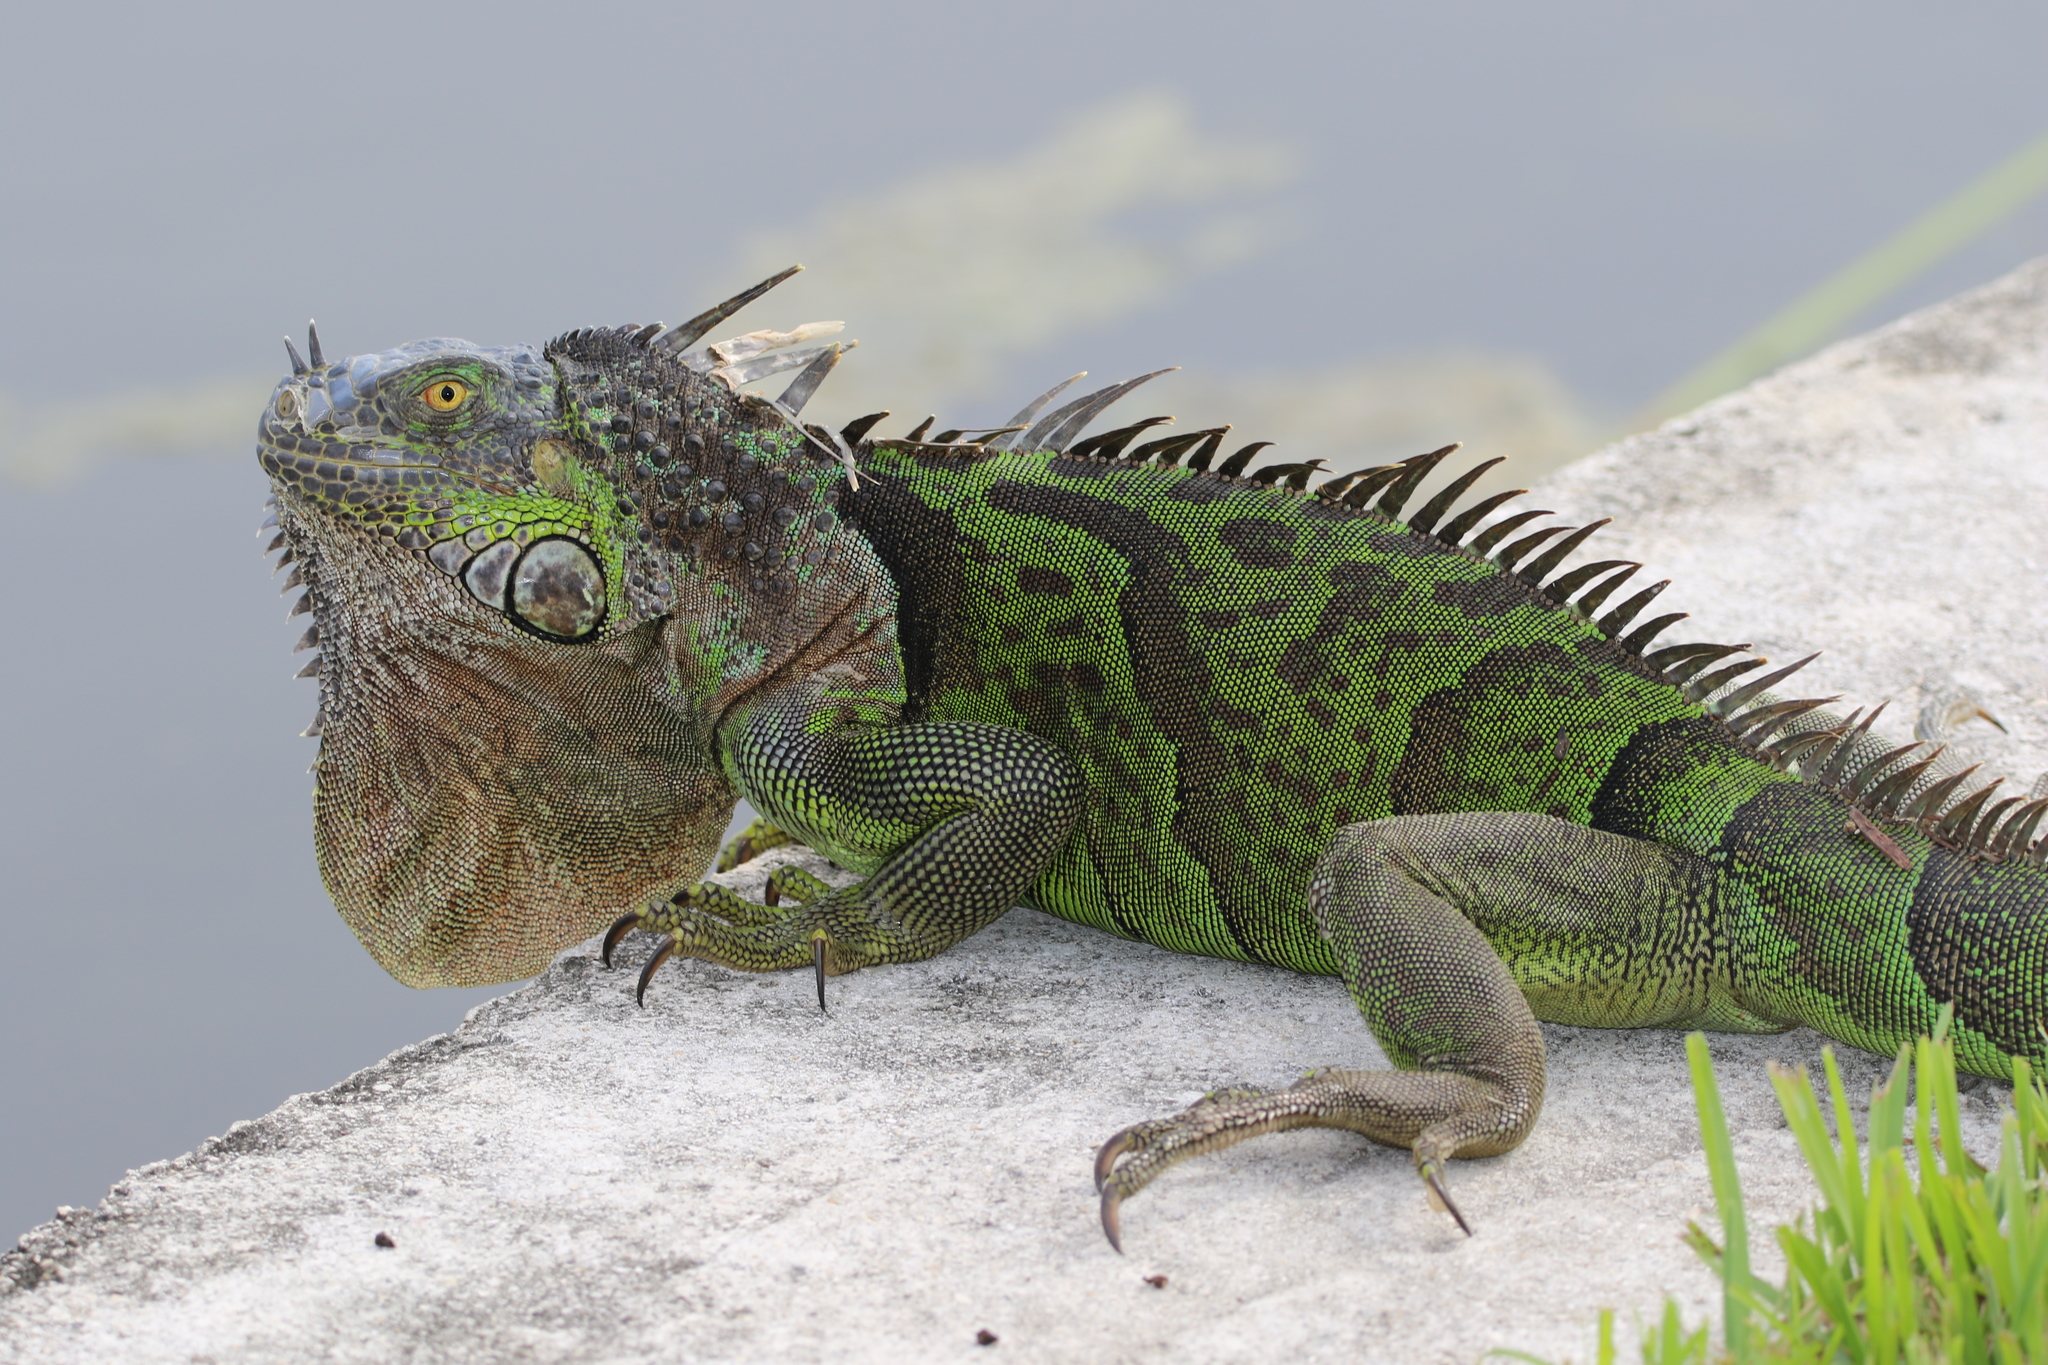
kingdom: Animalia
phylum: Chordata
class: Squamata
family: Iguanidae
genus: Iguana
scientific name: Iguana iguana
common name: Green iguana
